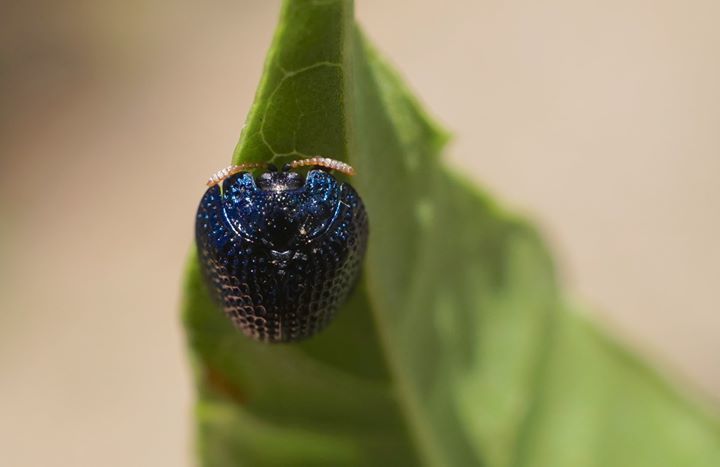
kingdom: Animalia
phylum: Arthropoda
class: Insecta
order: Coleoptera
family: Chrysomelidae
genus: Hemisphaerota
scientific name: Hemisphaerota cyanea
